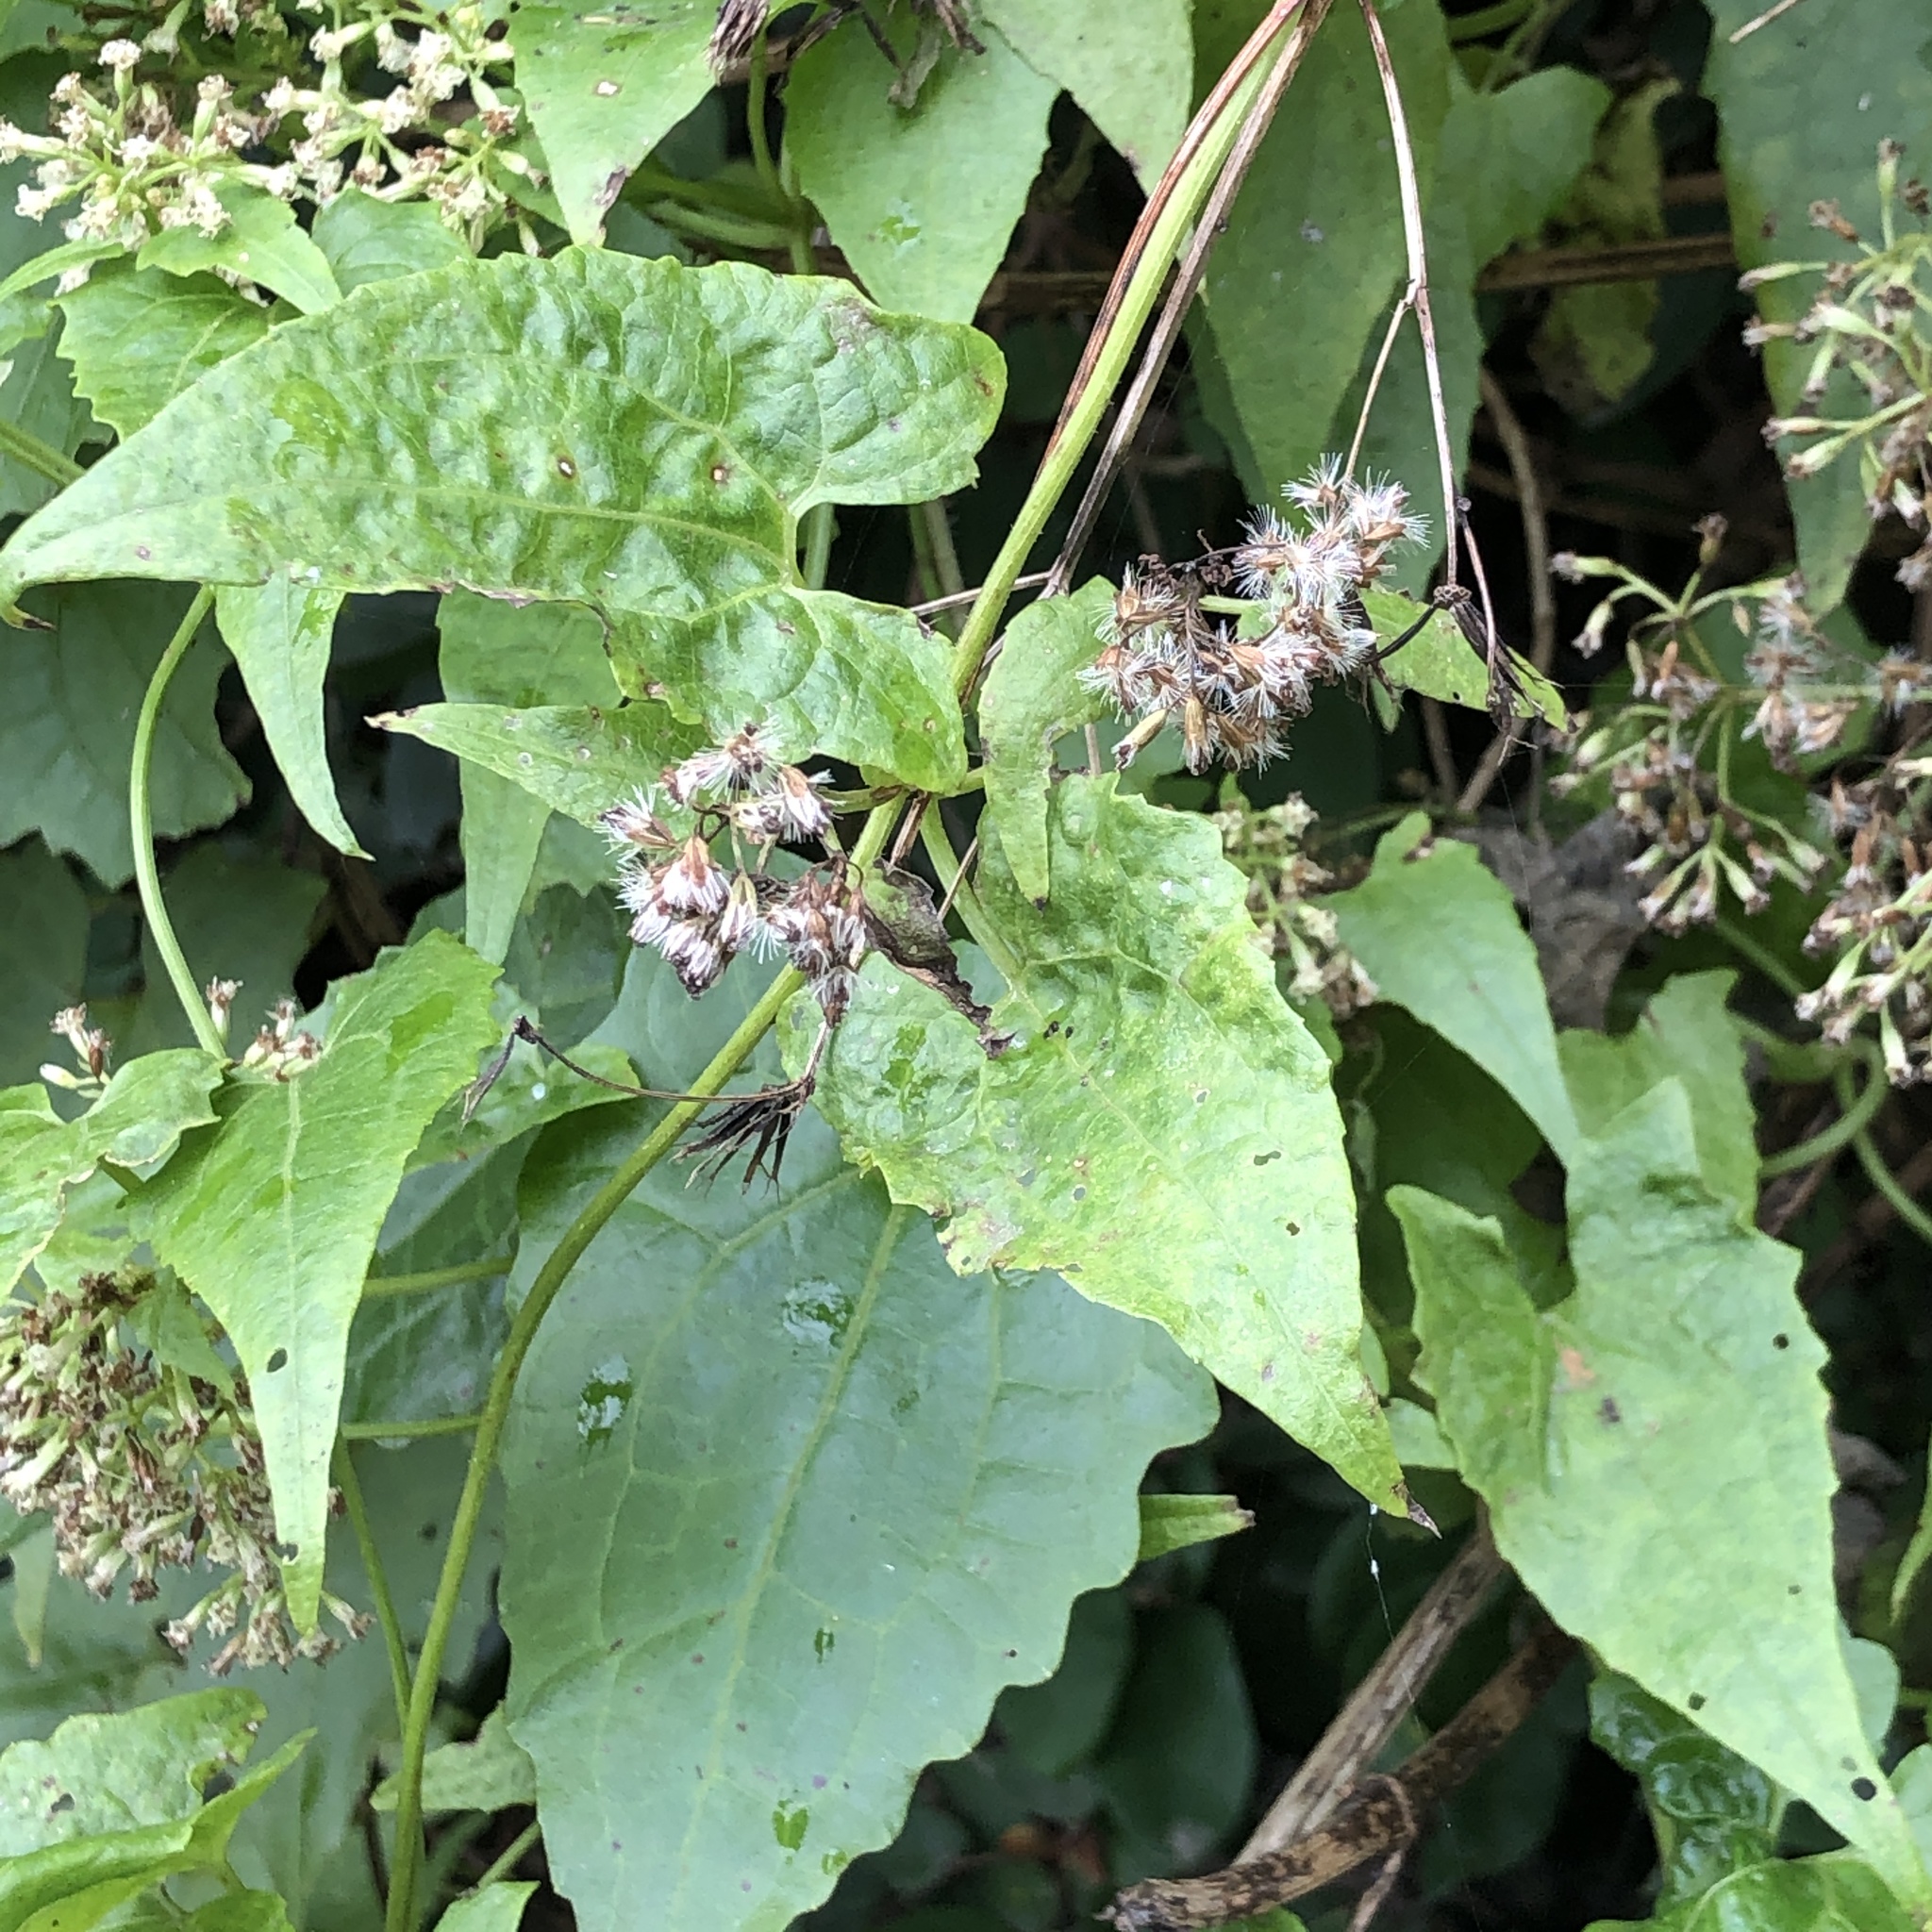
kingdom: Plantae
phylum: Tracheophyta
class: Magnoliopsida
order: Asterales
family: Asteraceae
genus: Mikania
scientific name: Mikania micrantha
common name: Mile-a-minute
